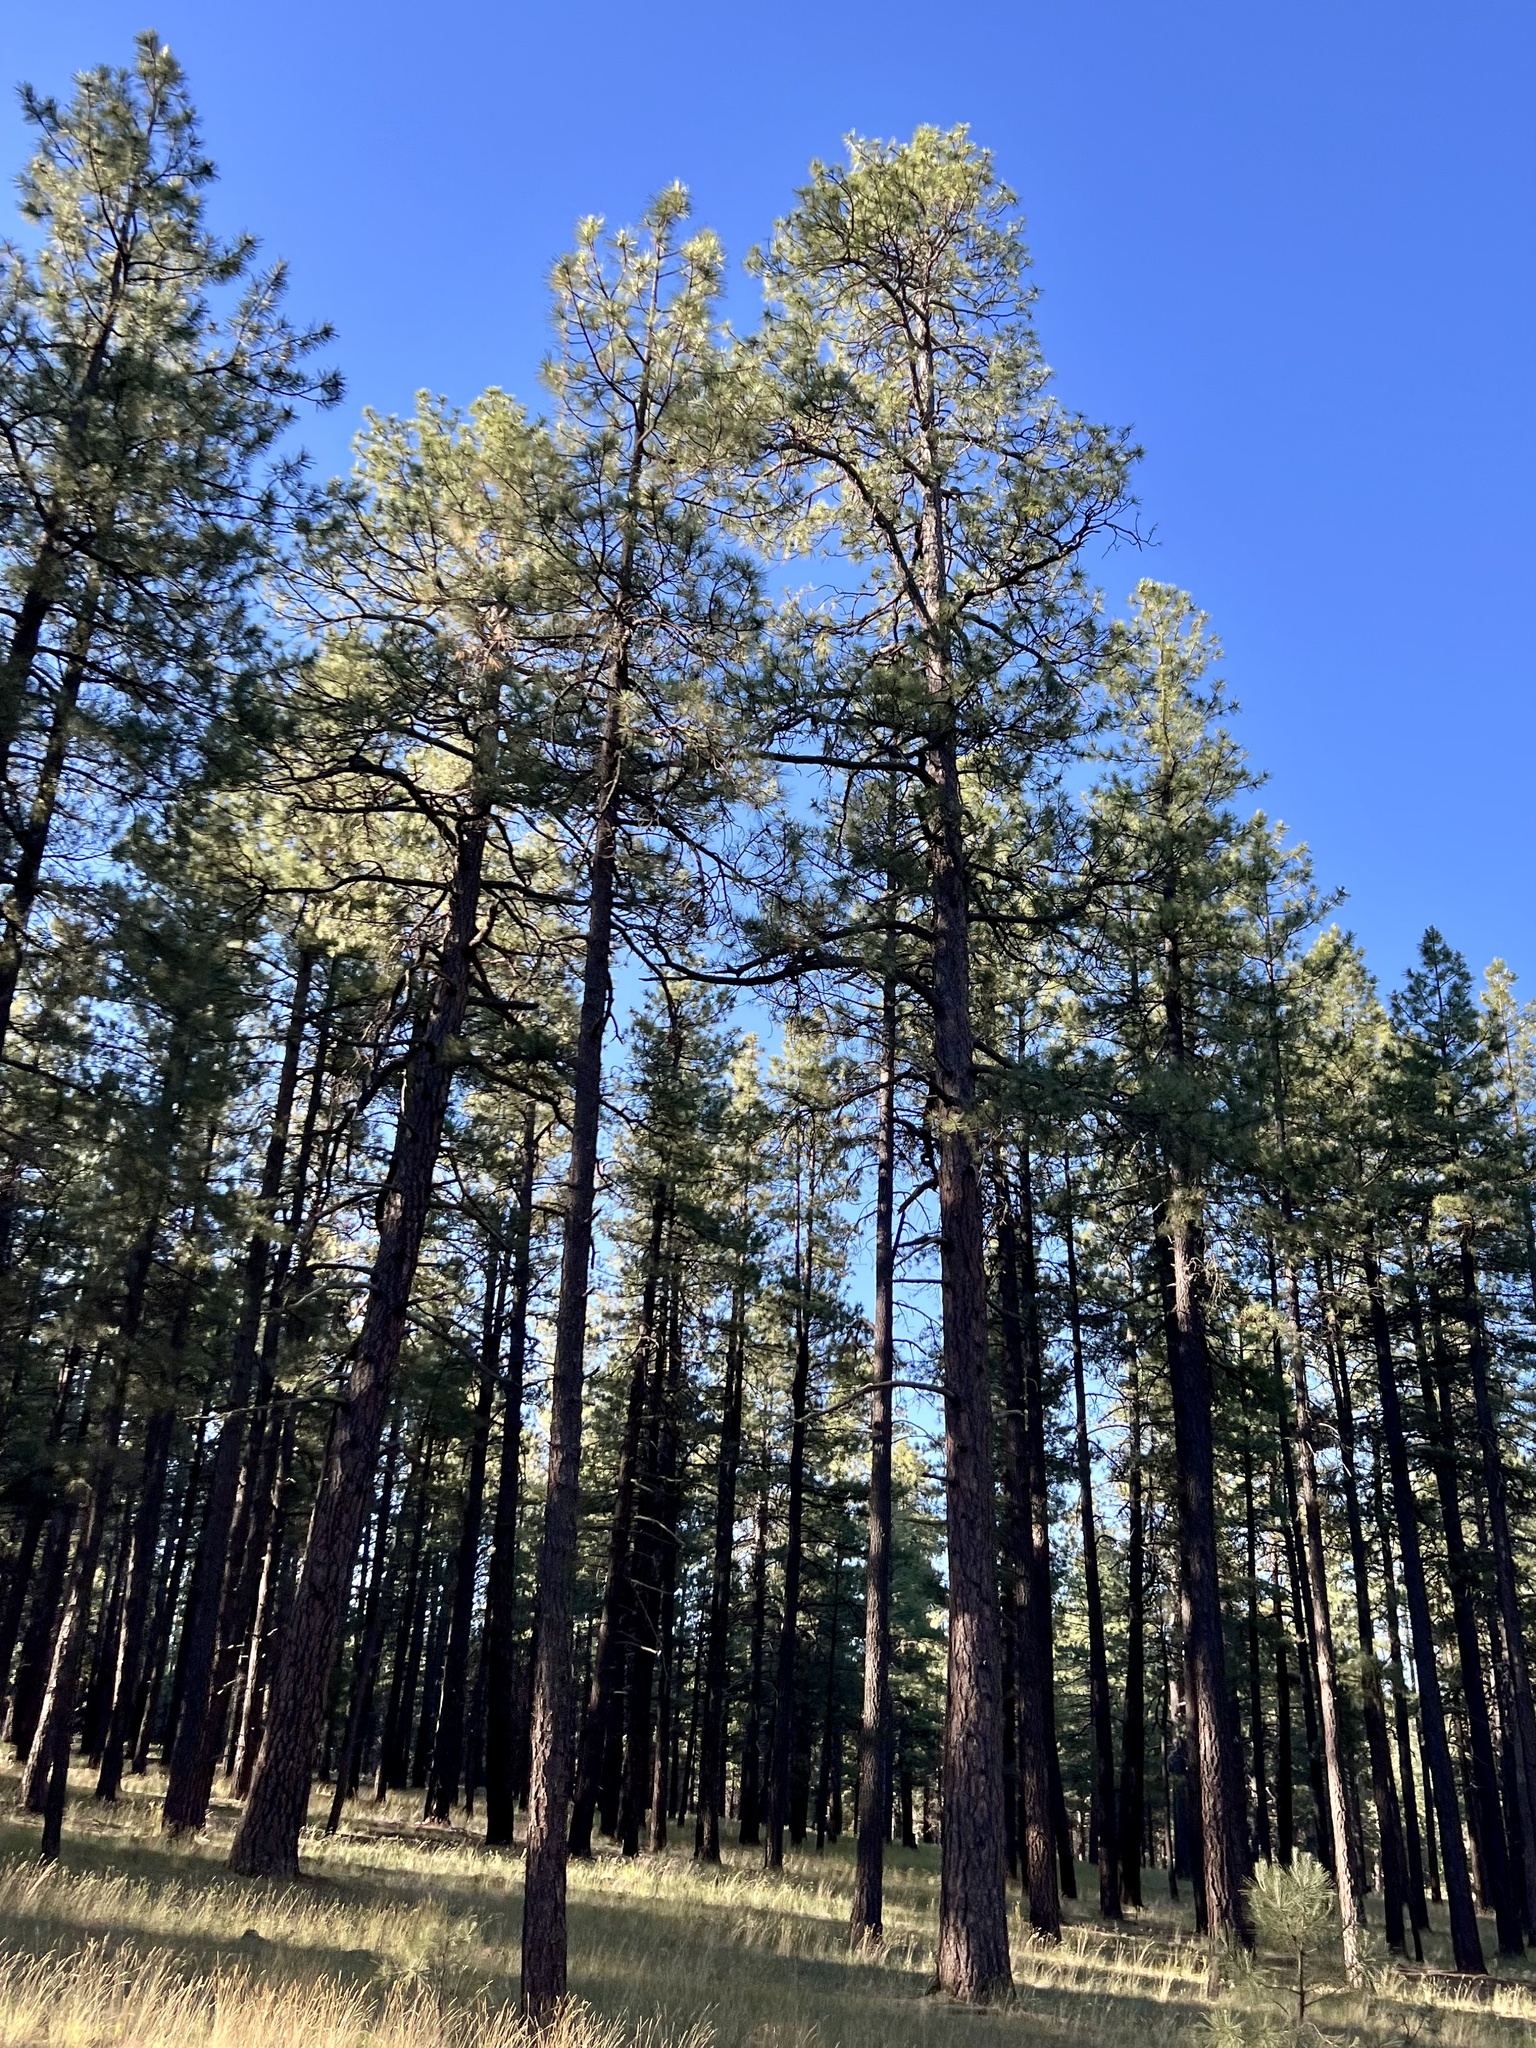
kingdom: Plantae
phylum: Tracheophyta
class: Pinopsida
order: Pinales
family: Pinaceae
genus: Pinus
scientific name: Pinus ponderosa
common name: Western yellow-pine
